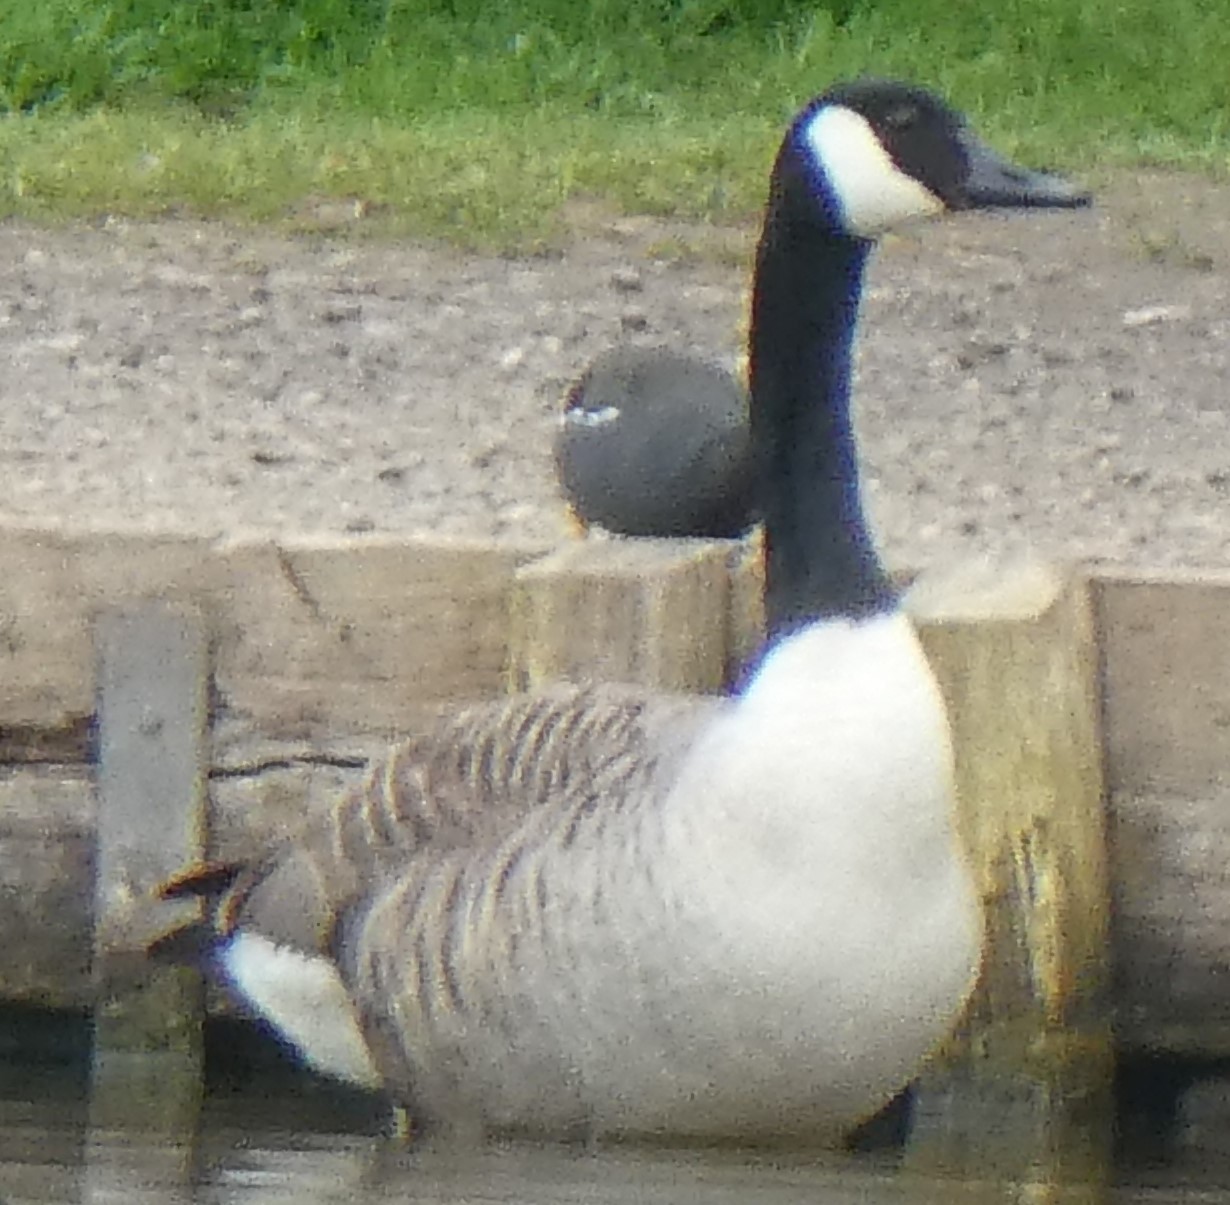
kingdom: Animalia
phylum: Chordata
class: Aves
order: Anseriformes
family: Anatidae
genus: Branta
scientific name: Branta canadensis
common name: Canada goose
